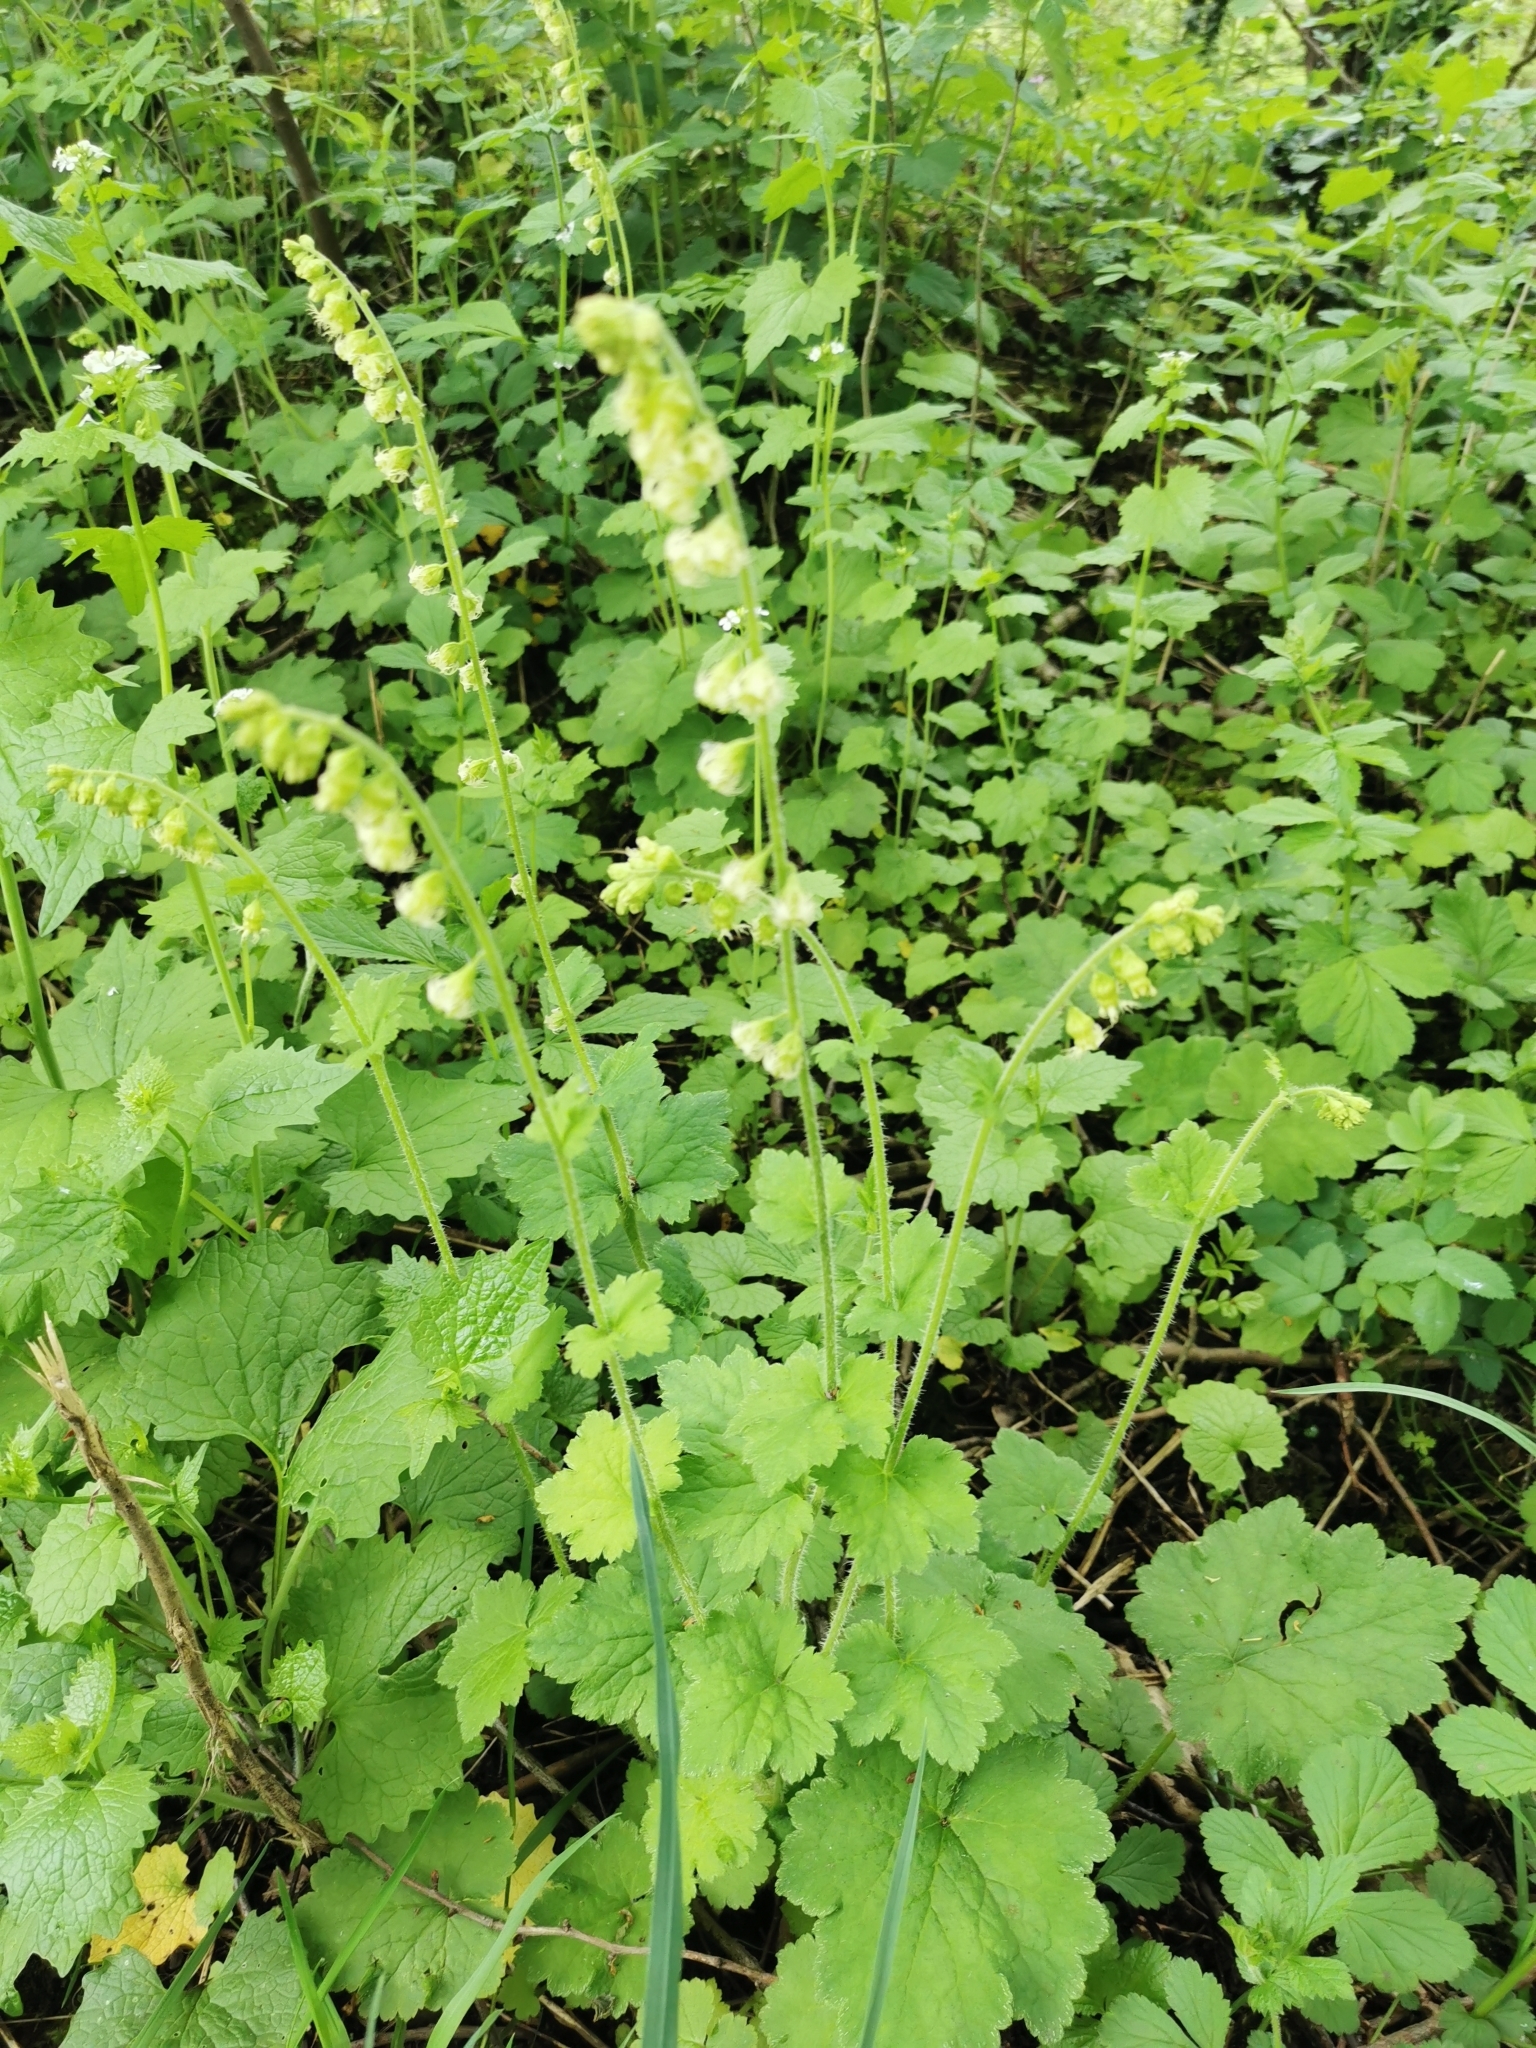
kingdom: Plantae
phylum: Tracheophyta
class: Magnoliopsida
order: Saxifragales
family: Saxifragaceae
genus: Tellima
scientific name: Tellima grandiflora
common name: Fringecups
